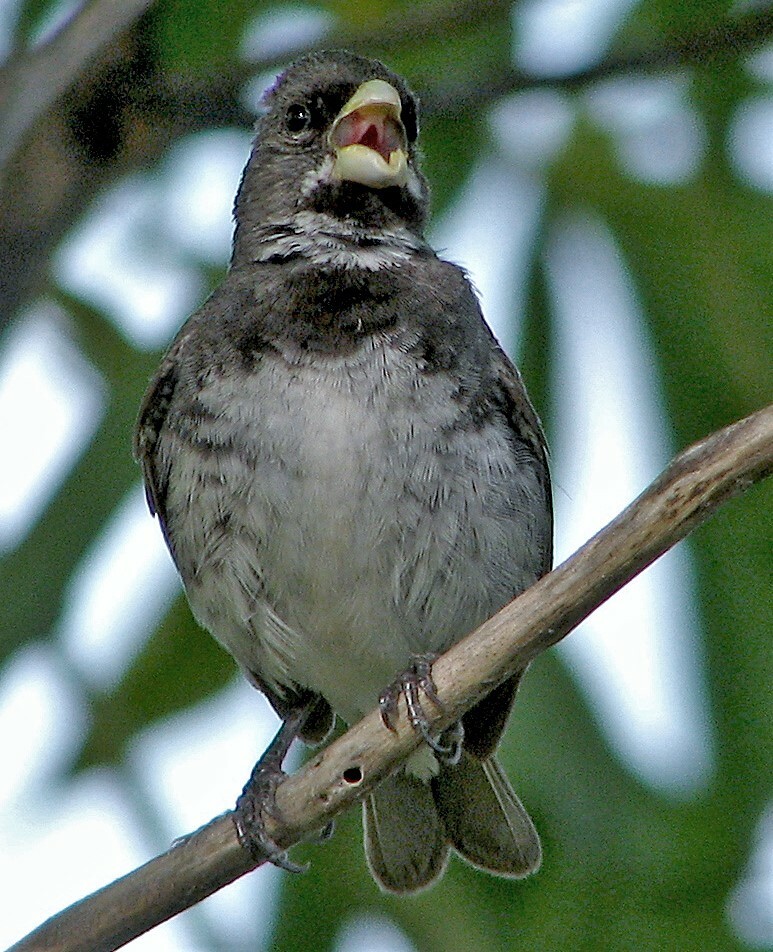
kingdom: Animalia
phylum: Chordata
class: Aves
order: Passeriformes
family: Thraupidae
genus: Sporophila
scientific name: Sporophila caerulescens
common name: Double-collared seedeater
